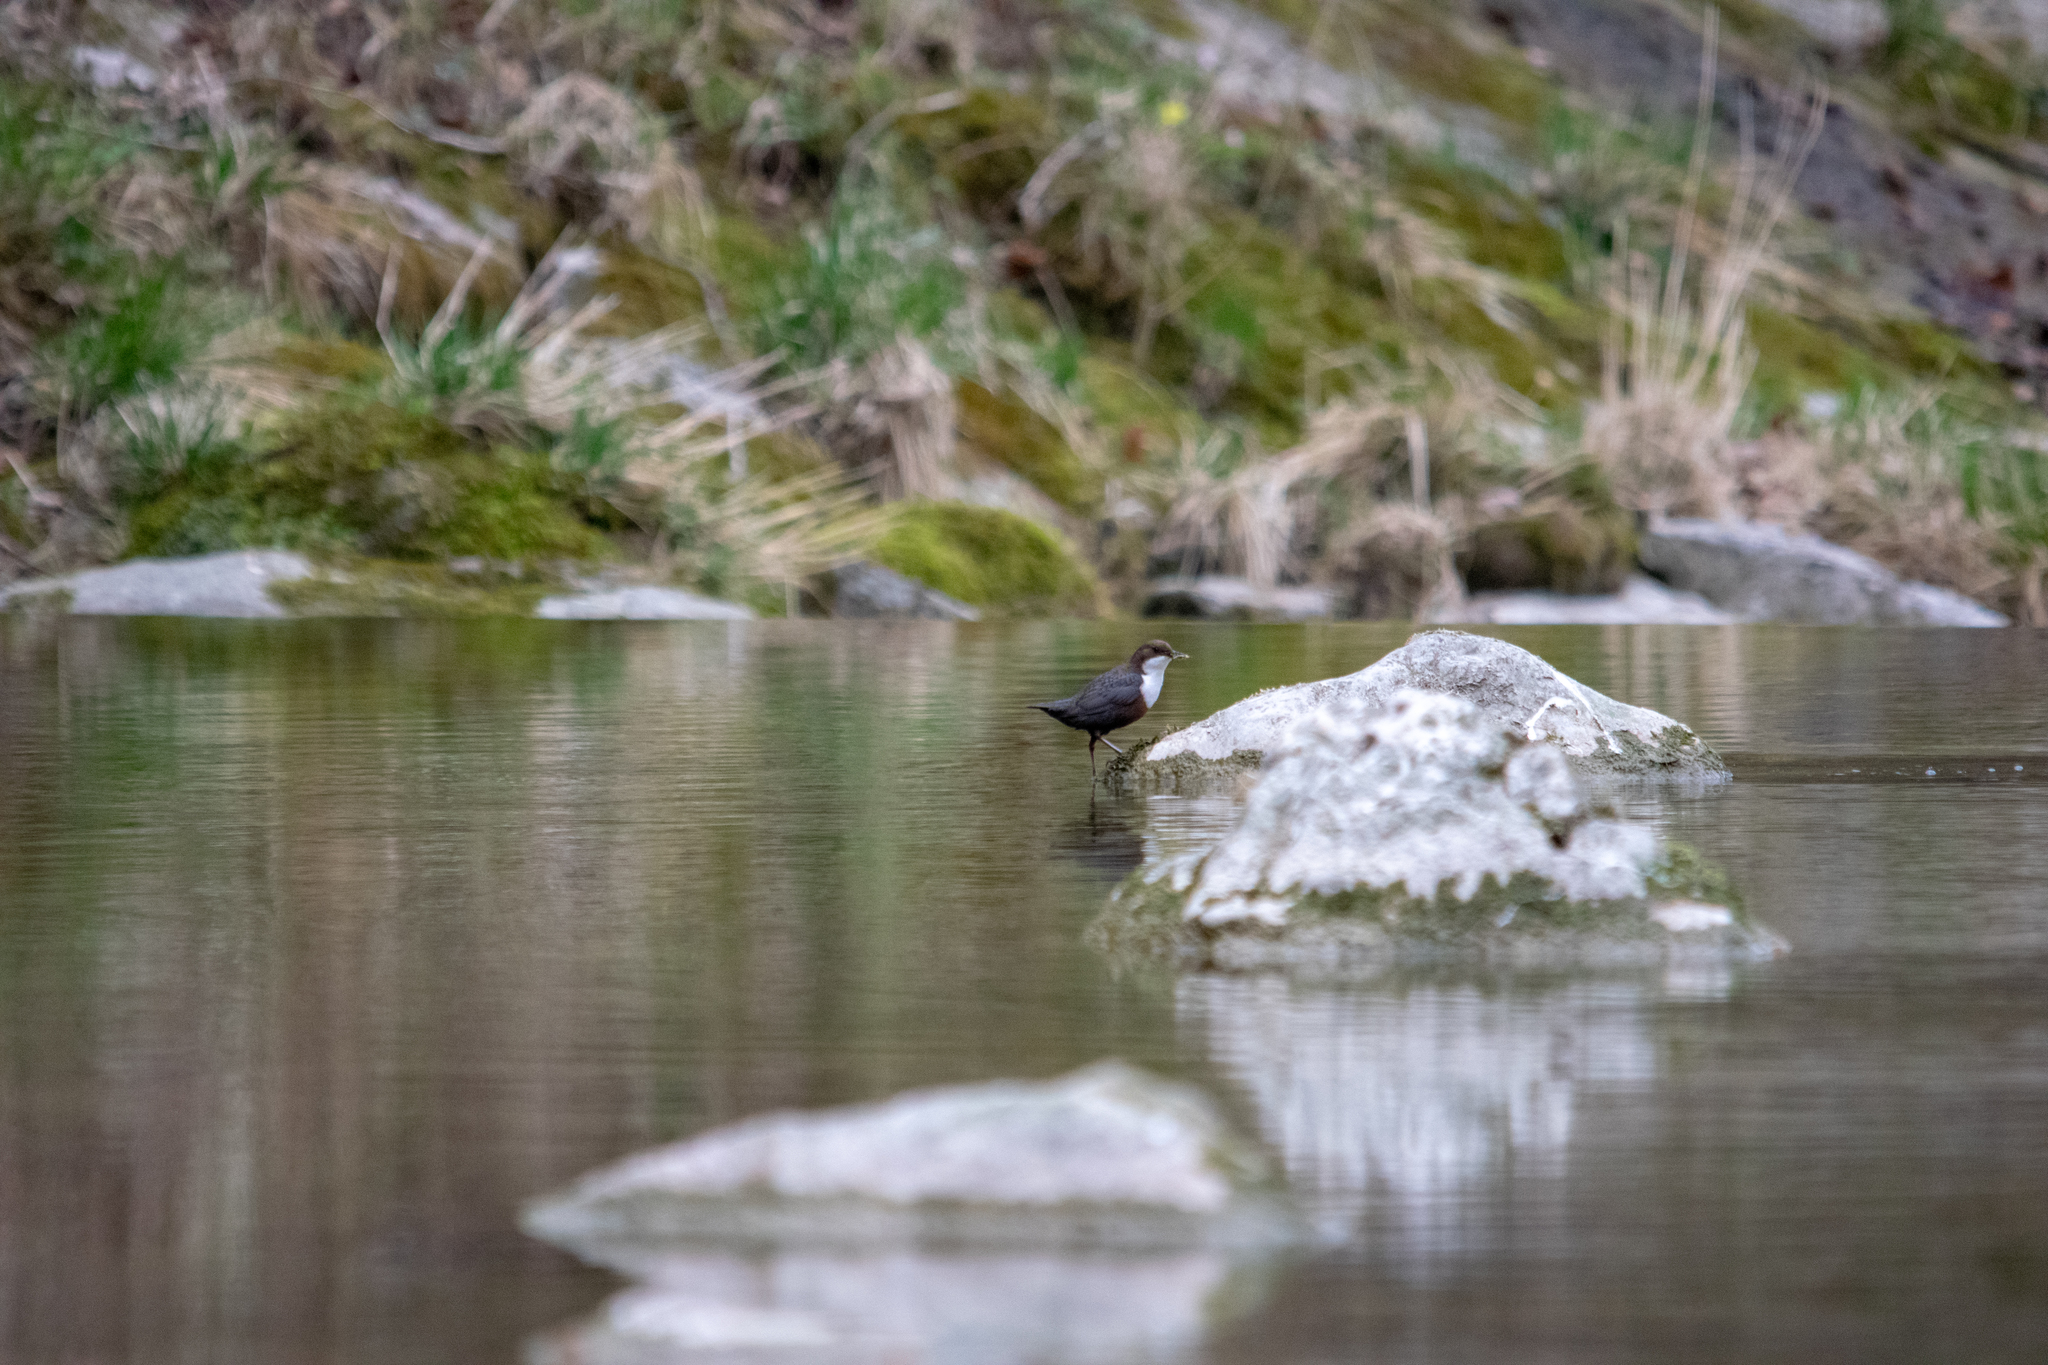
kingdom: Animalia
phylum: Chordata
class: Aves
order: Passeriformes
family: Cinclidae
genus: Cinclus
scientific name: Cinclus cinclus
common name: White-throated dipper
